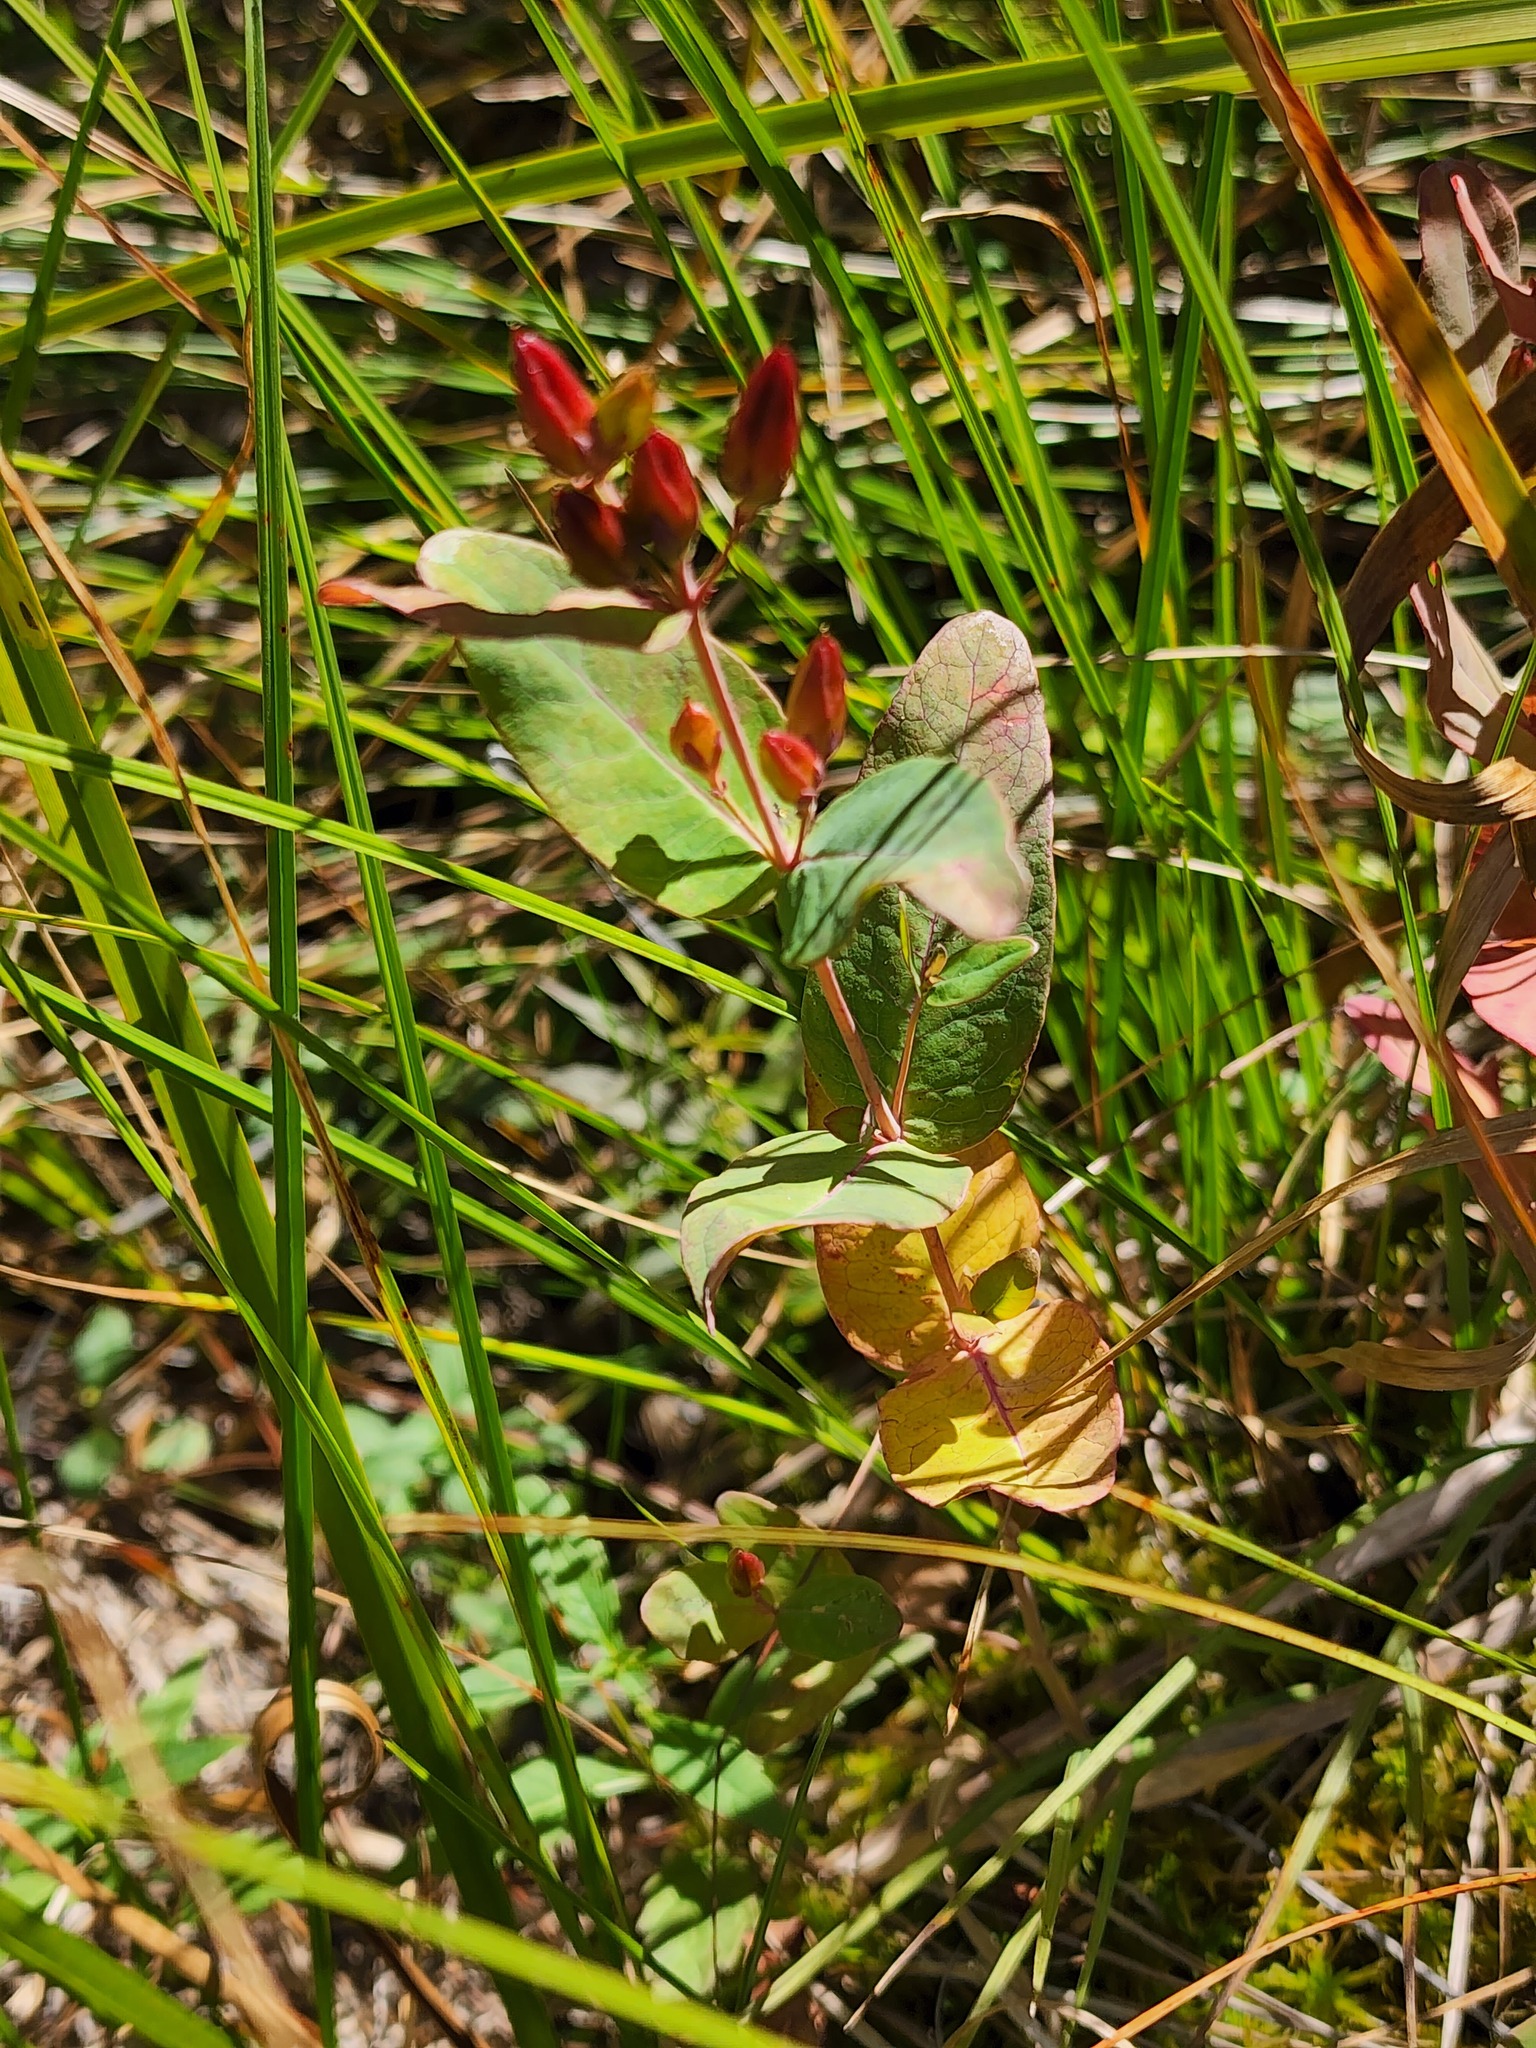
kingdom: Plantae
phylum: Tracheophyta
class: Magnoliopsida
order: Malpighiales
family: Hypericaceae
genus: Triadenum
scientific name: Triadenum fraseri
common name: Fraser's marsh st. johnswort
